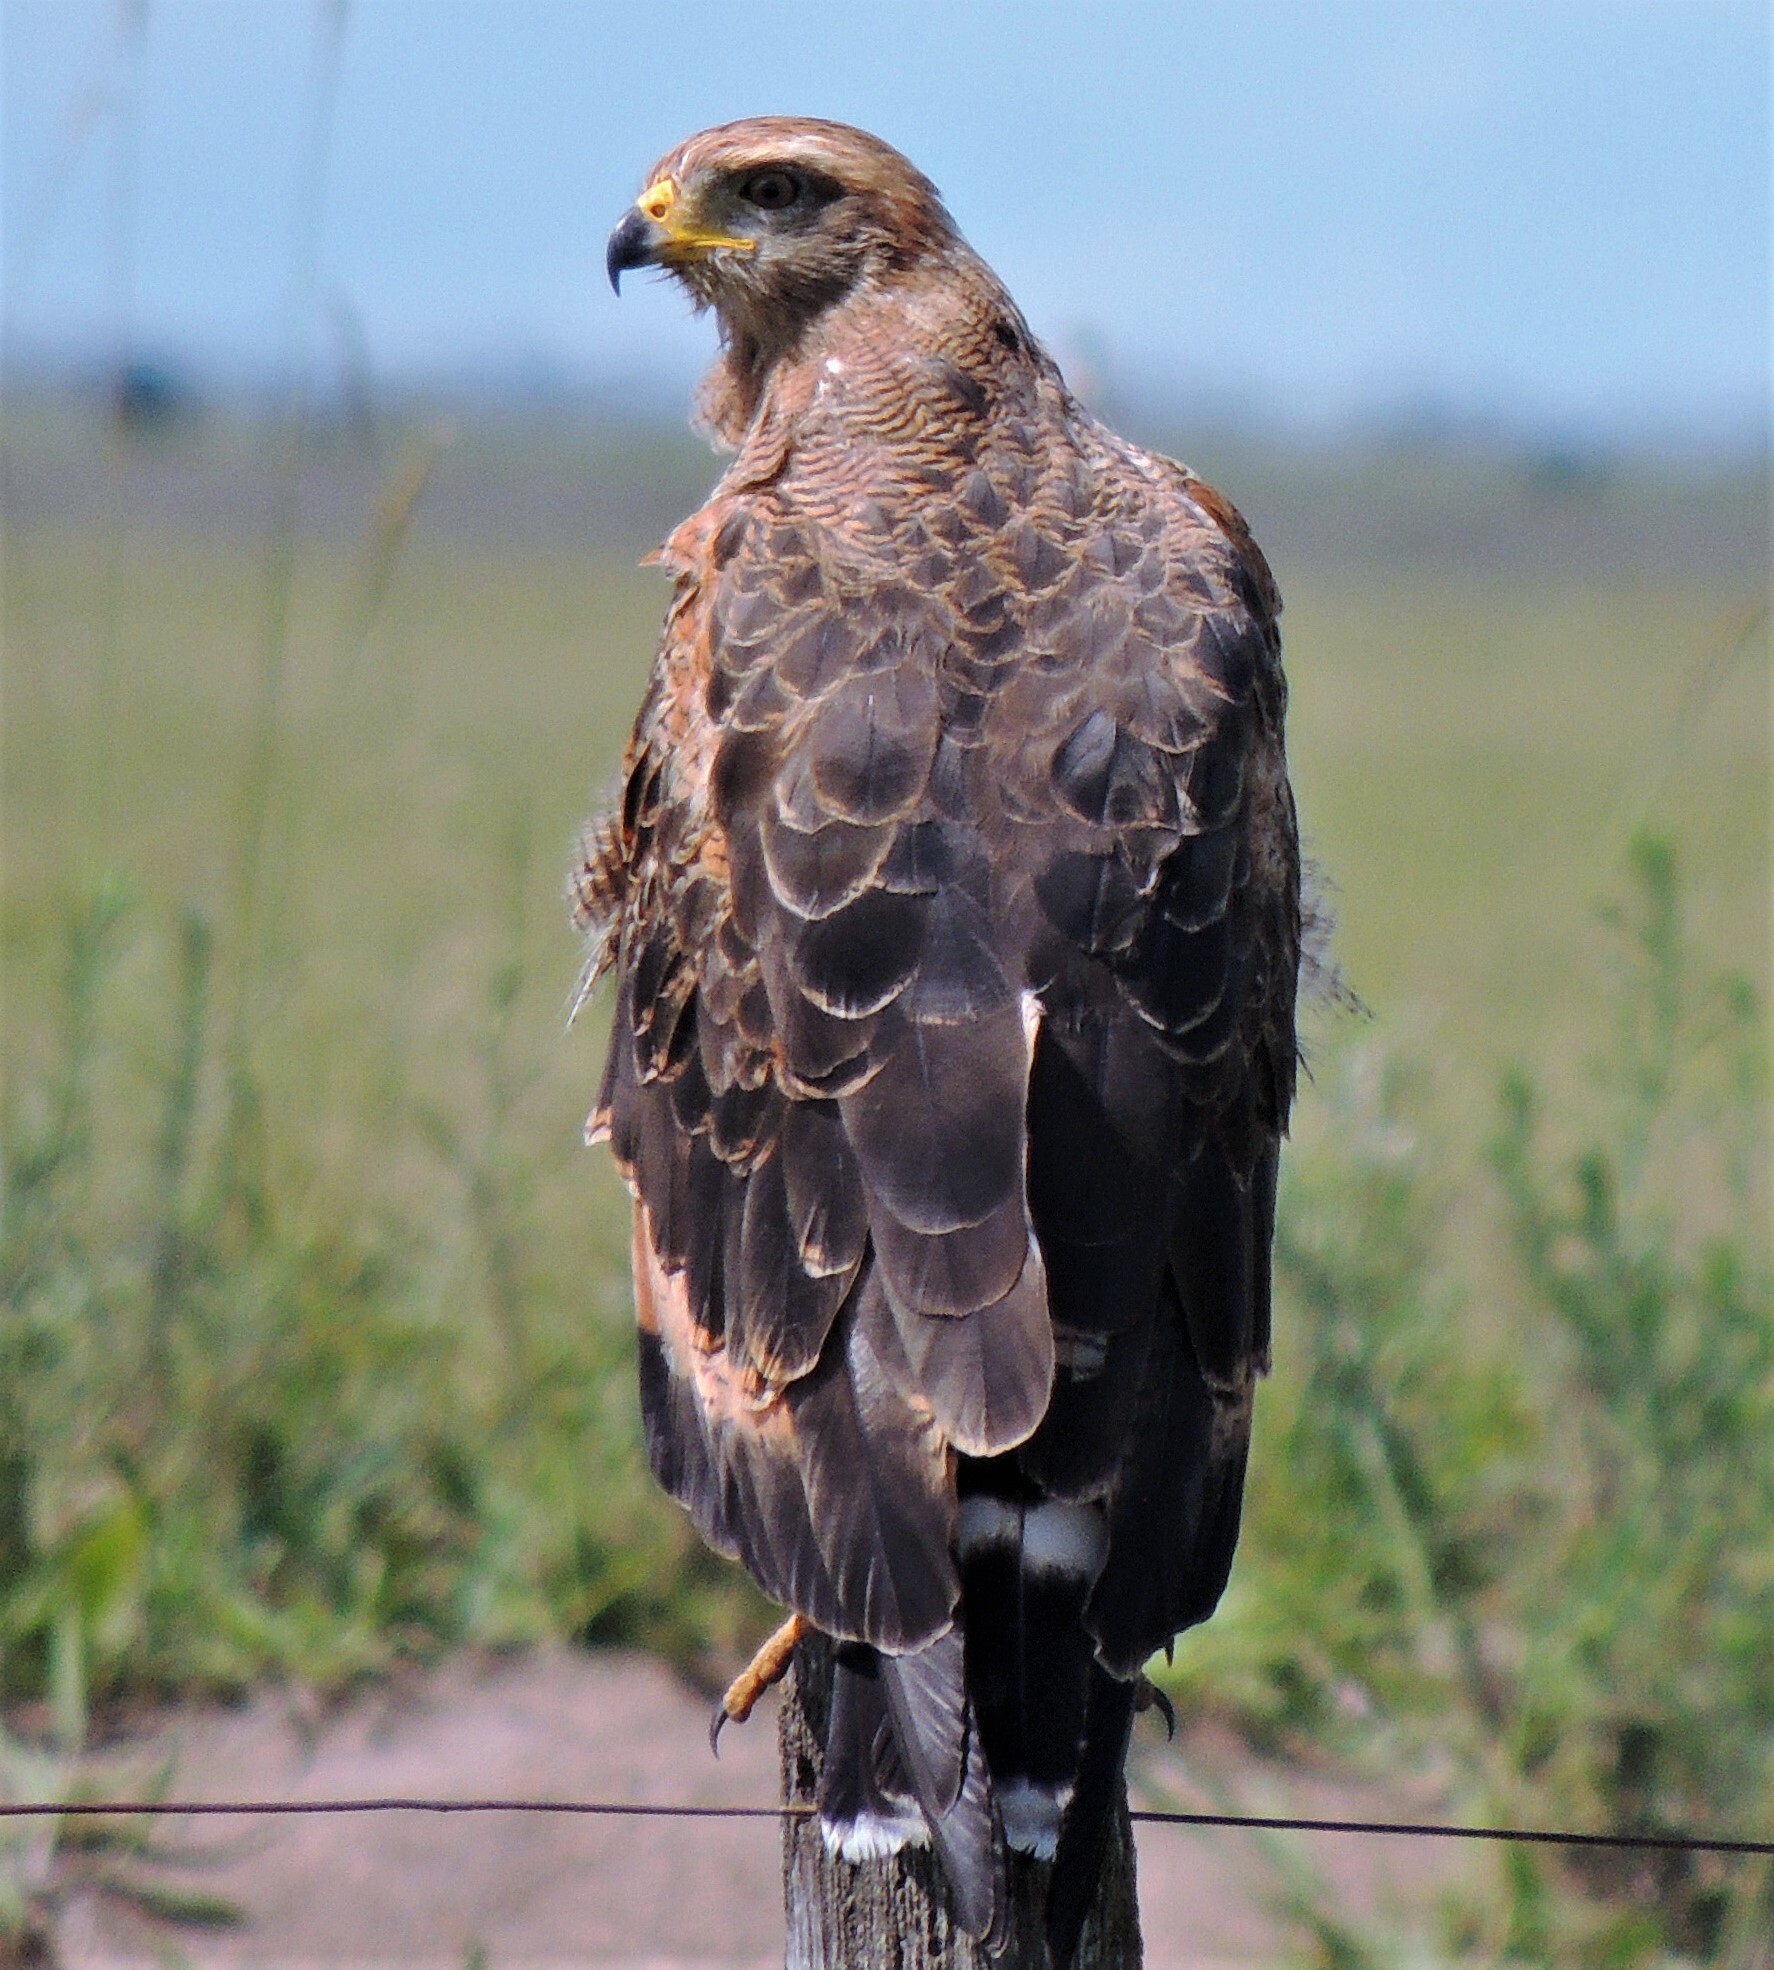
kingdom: Animalia
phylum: Chordata
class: Aves
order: Accipitriformes
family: Accipitridae
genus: Buteogallus
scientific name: Buteogallus meridionalis
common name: Savanna hawk
